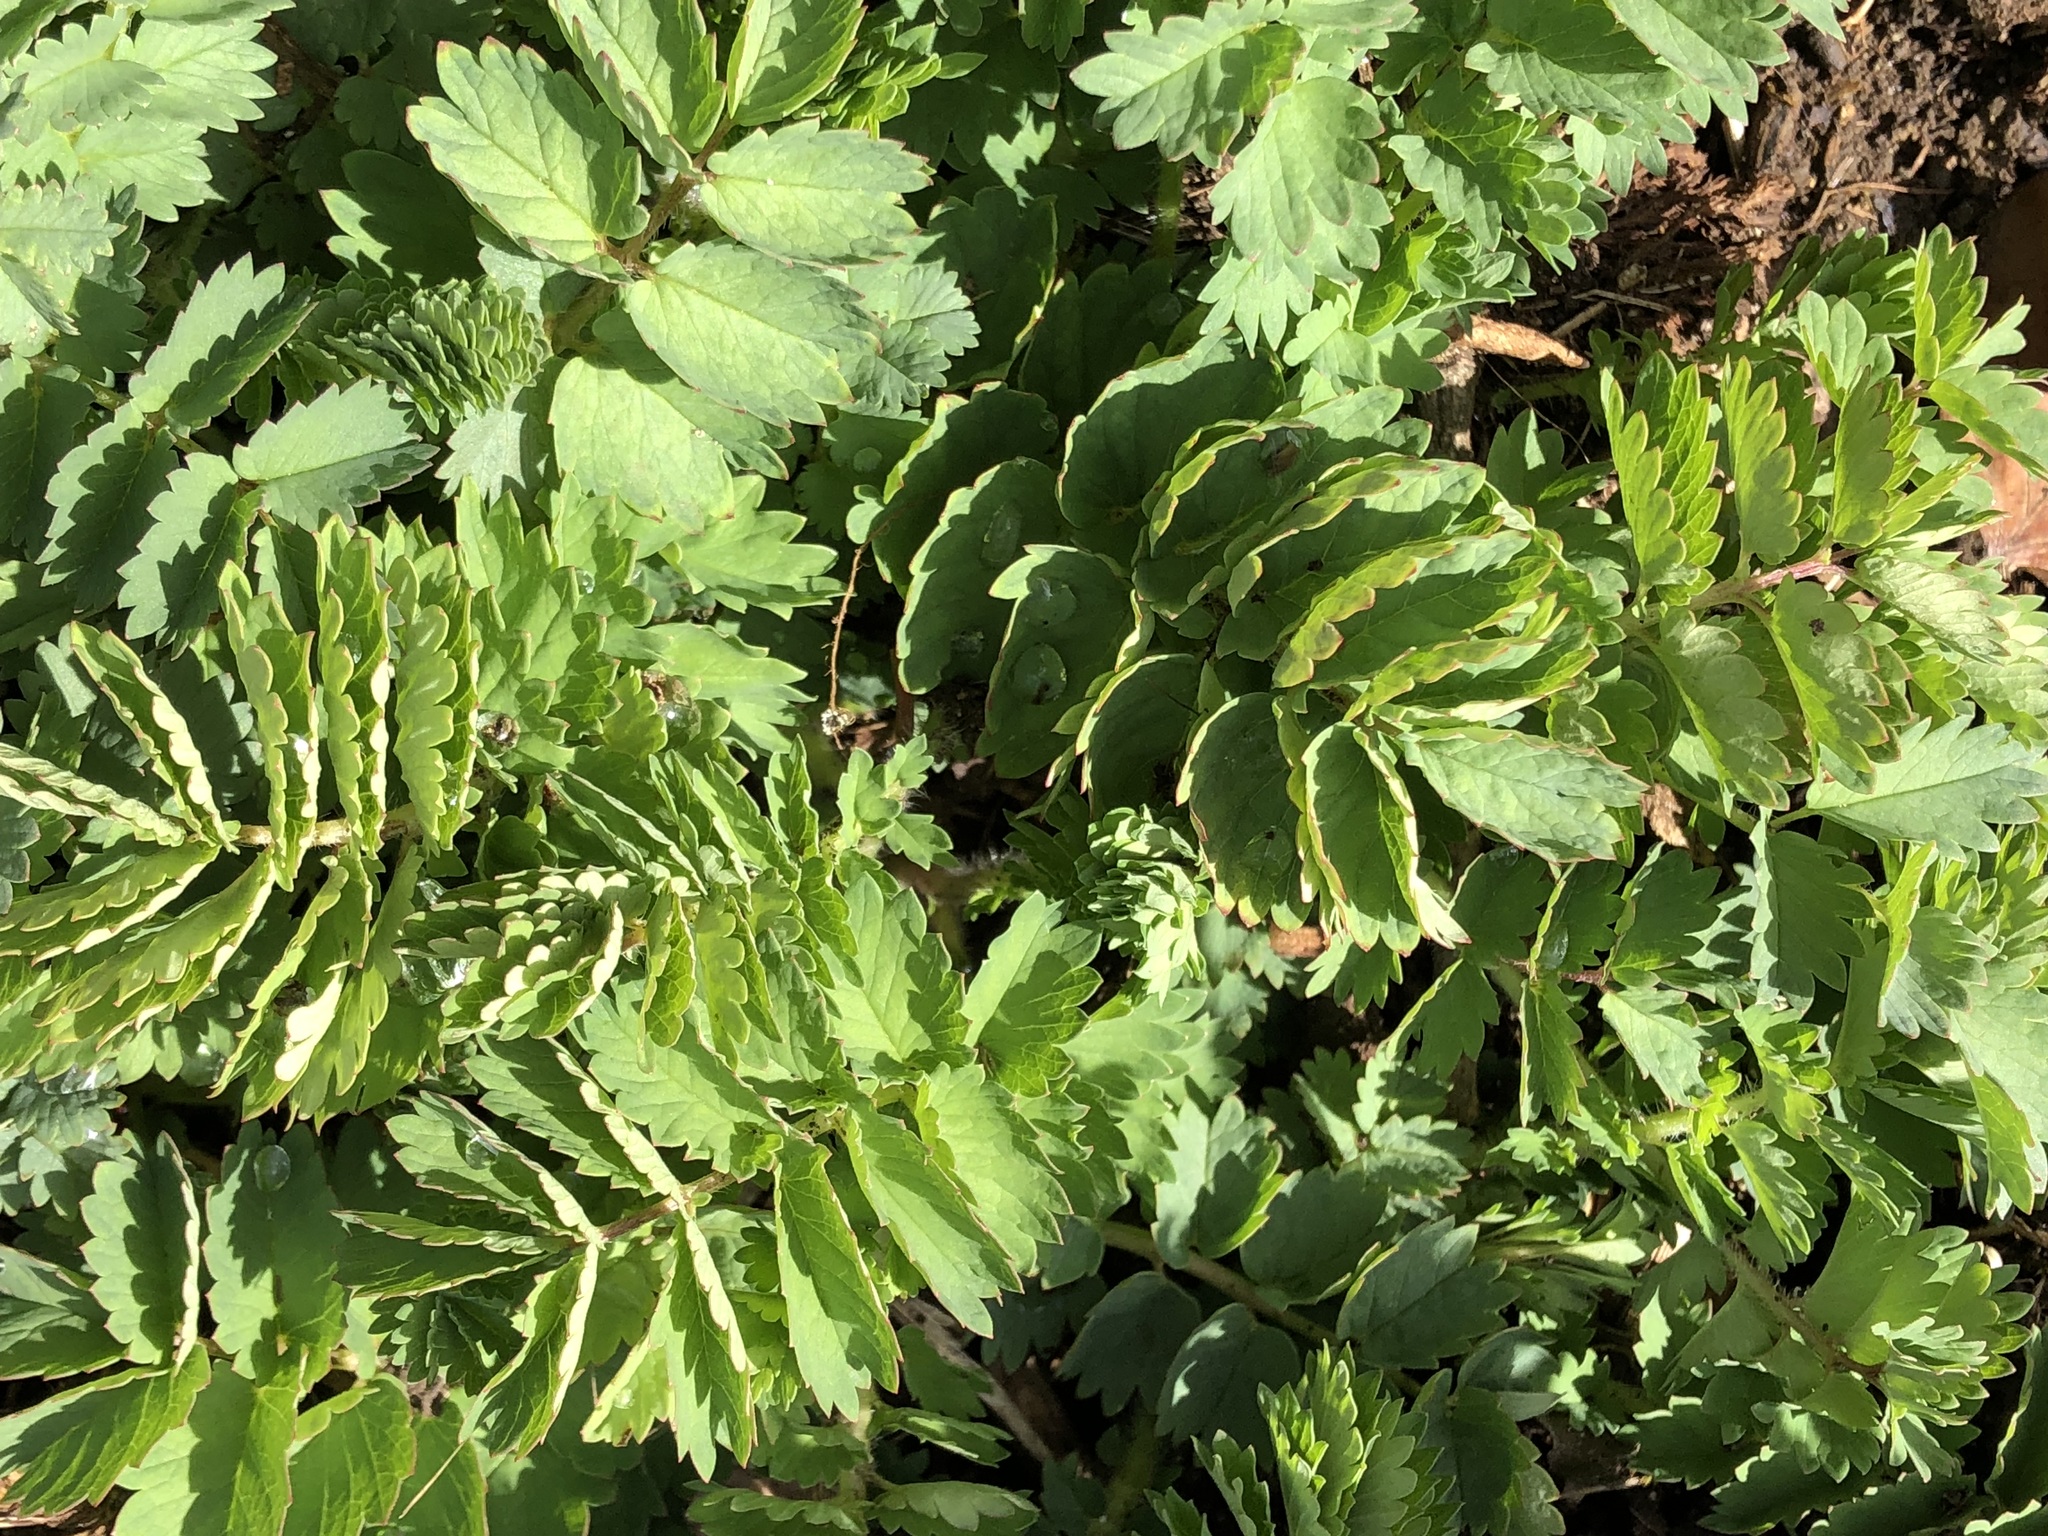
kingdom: Plantae
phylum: Tracheophyta
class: Magnoliopsida
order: Rosales
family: Rosaceae
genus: Poterium
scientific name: Poterium sanguisorba
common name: Salad burnet
